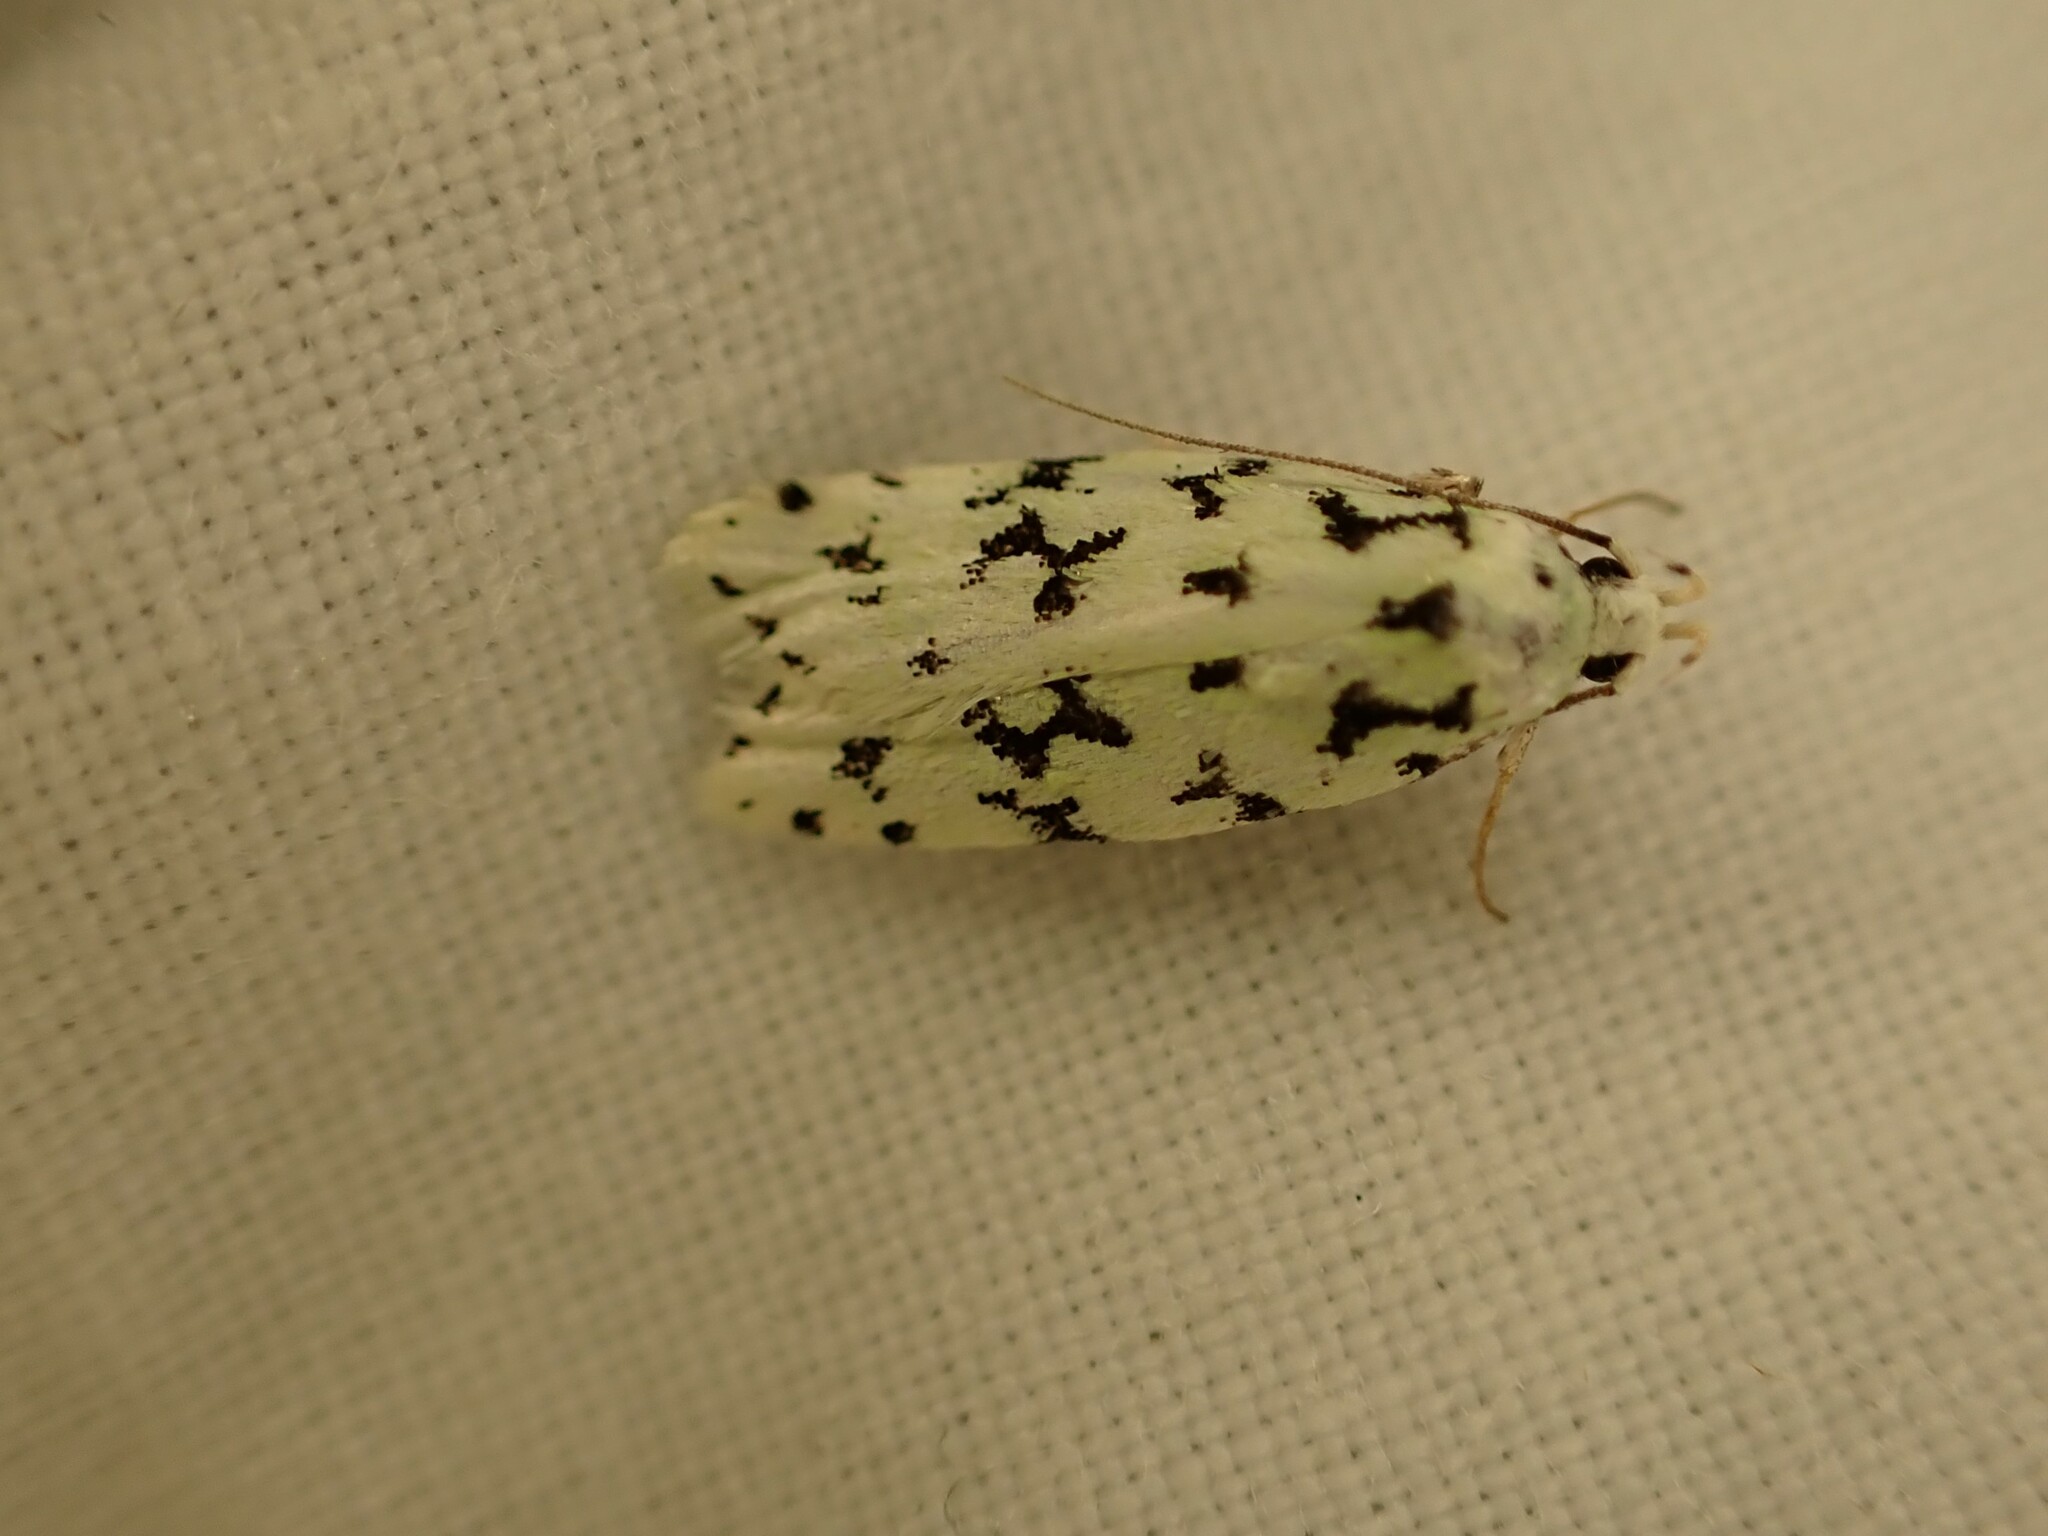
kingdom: Animalia
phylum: Arthropoda
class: Insecta
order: Lepidoptera
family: Oecophoridae
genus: Izatha
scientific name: Izatha huttoni
